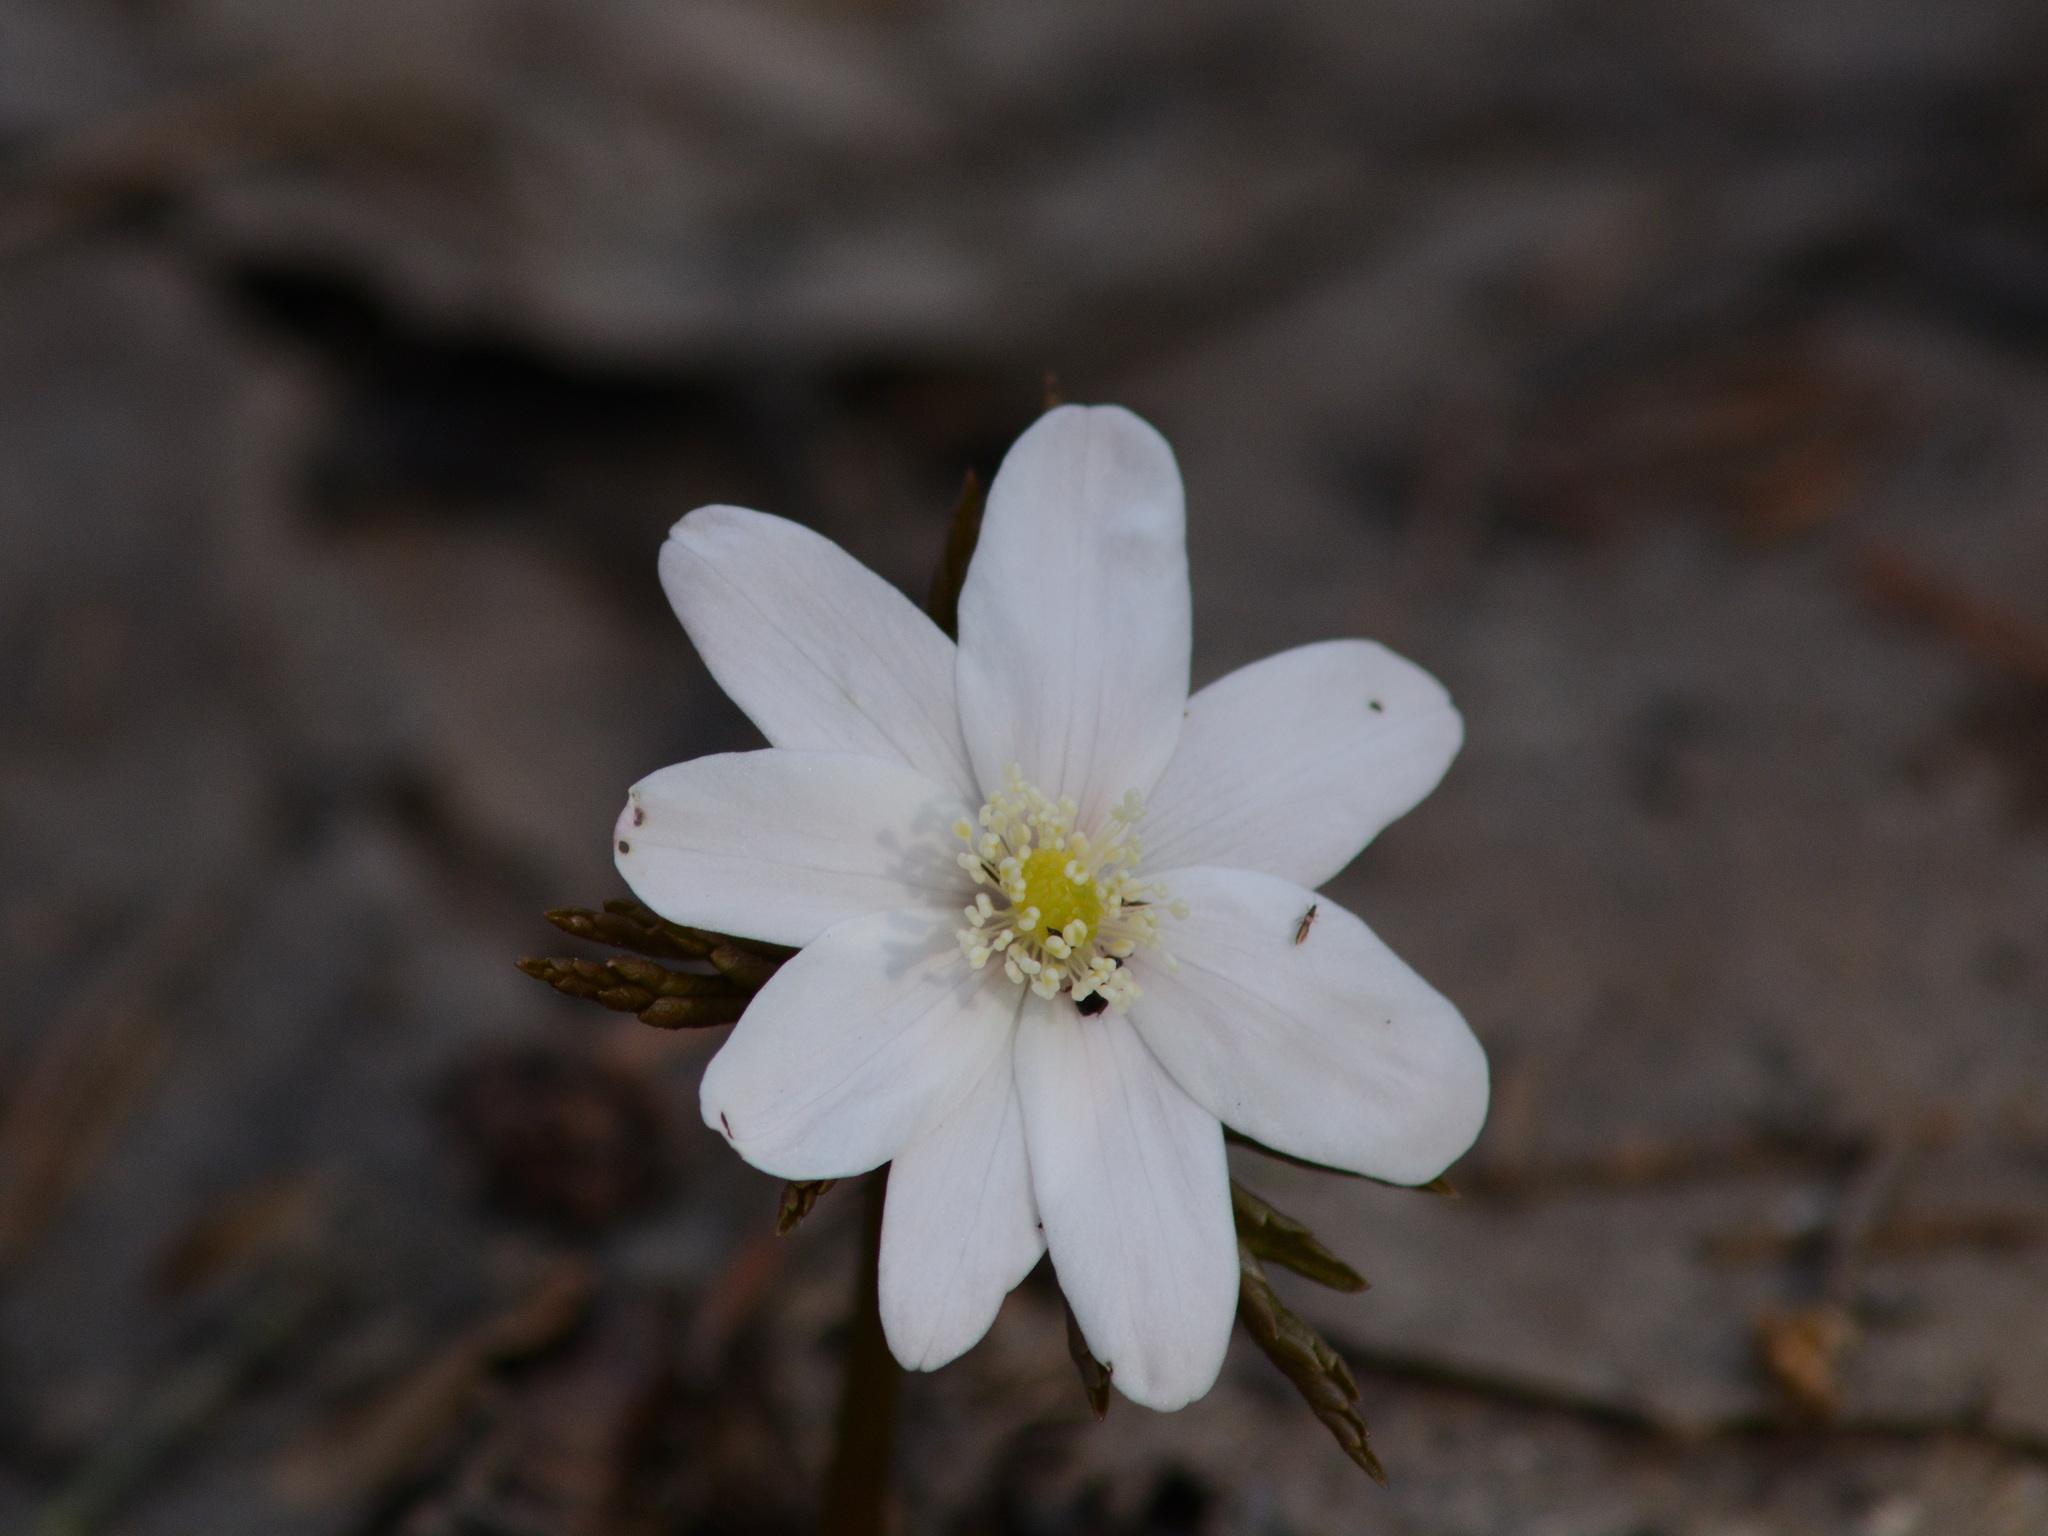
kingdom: Plantae
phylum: Tracheophyta
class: Magnoliopsida
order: Ranunculales
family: Ranunculaceae
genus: Anemone
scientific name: Anemone altaica
